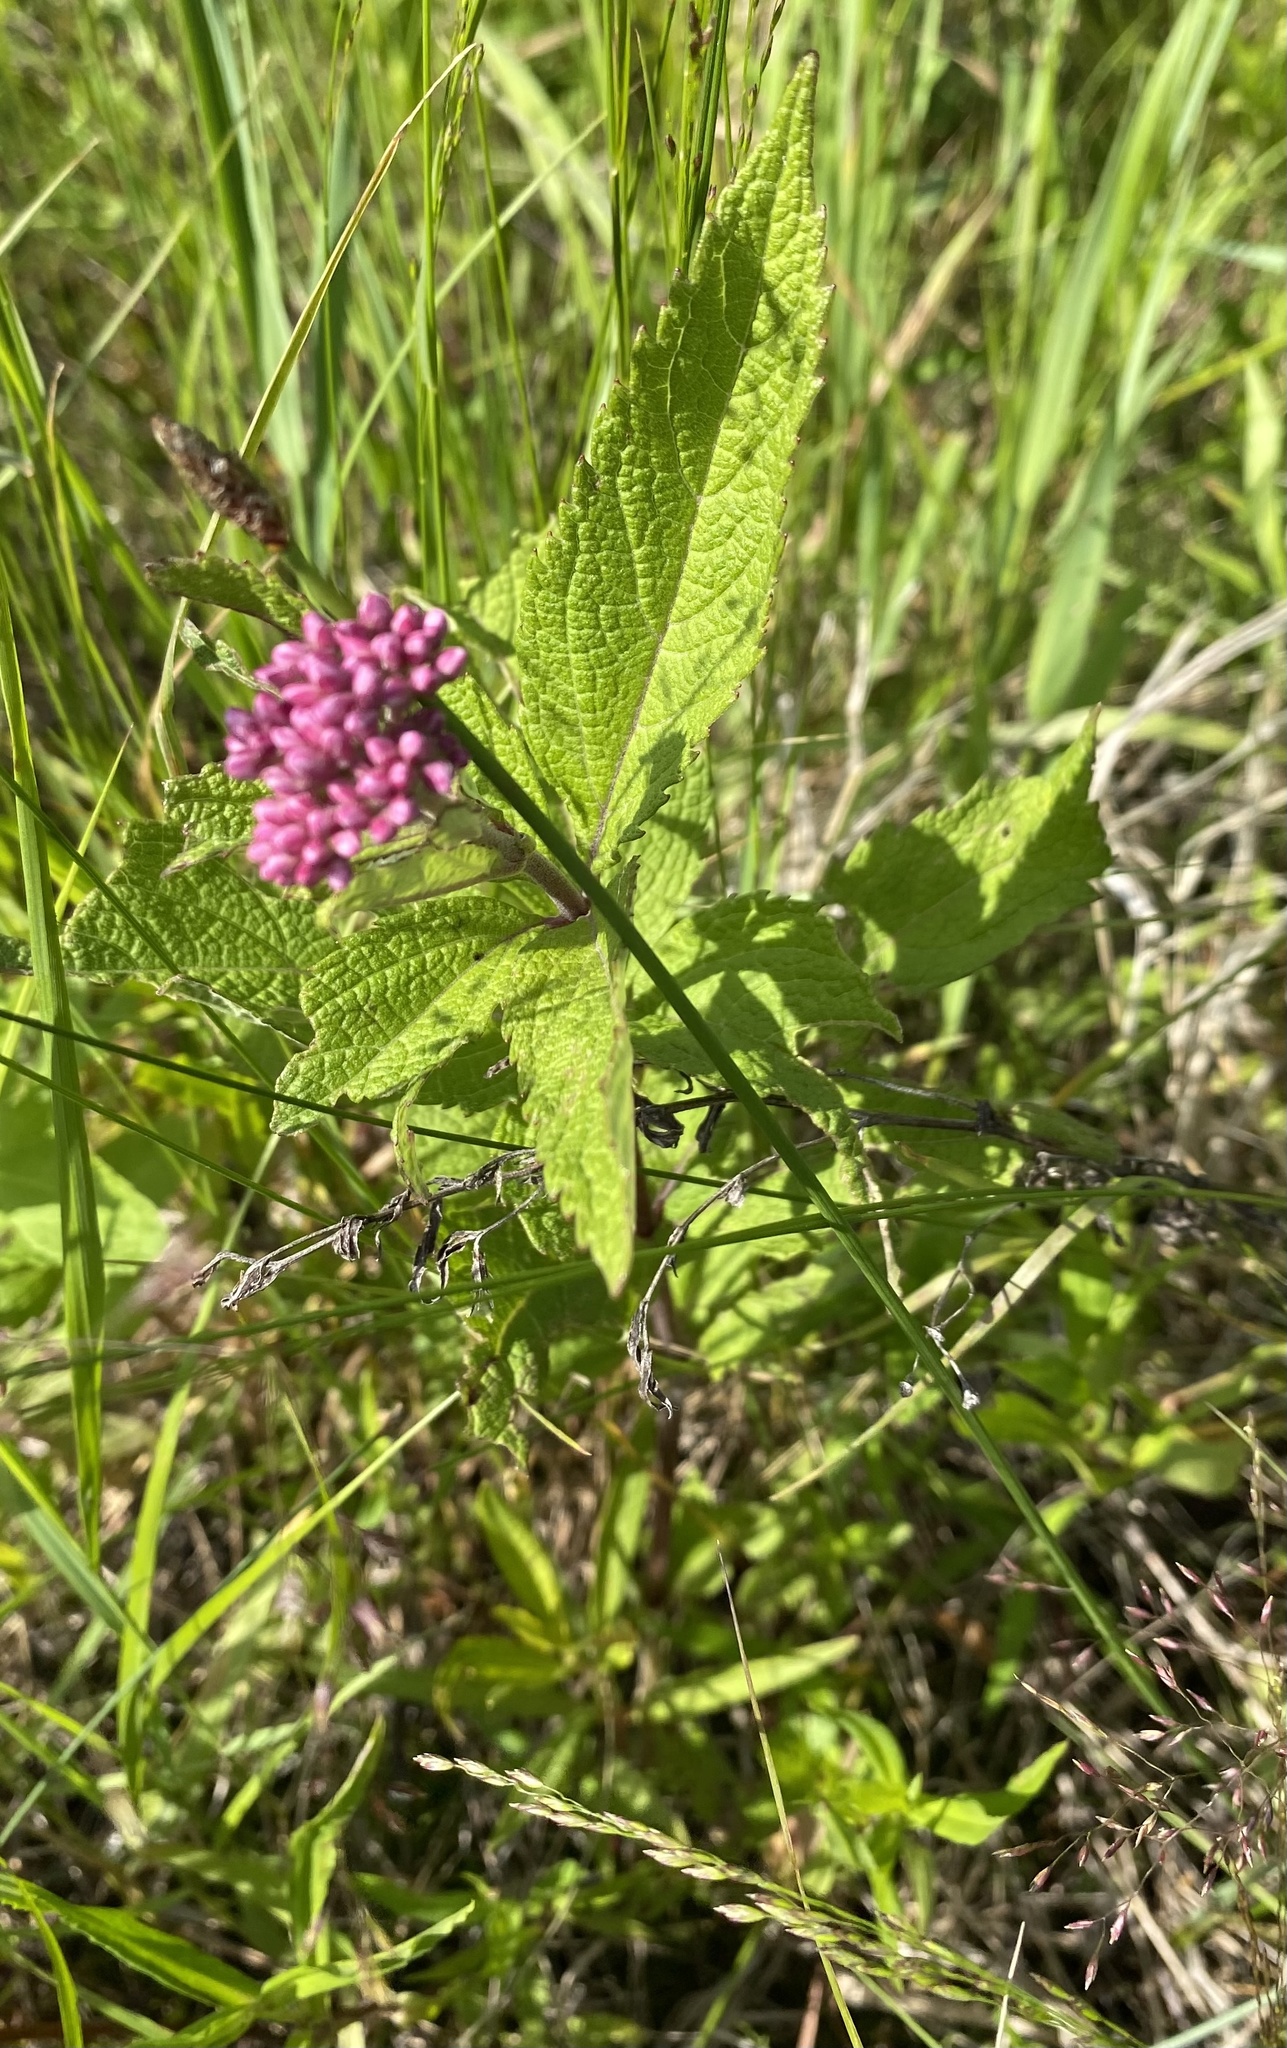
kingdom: Plantae
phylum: Tracheophyta
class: Magnoliopsida
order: Asterales
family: Asteraceae
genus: Eutrochium
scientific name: Eutrochium maculatum
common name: Spotted joe pye weed
